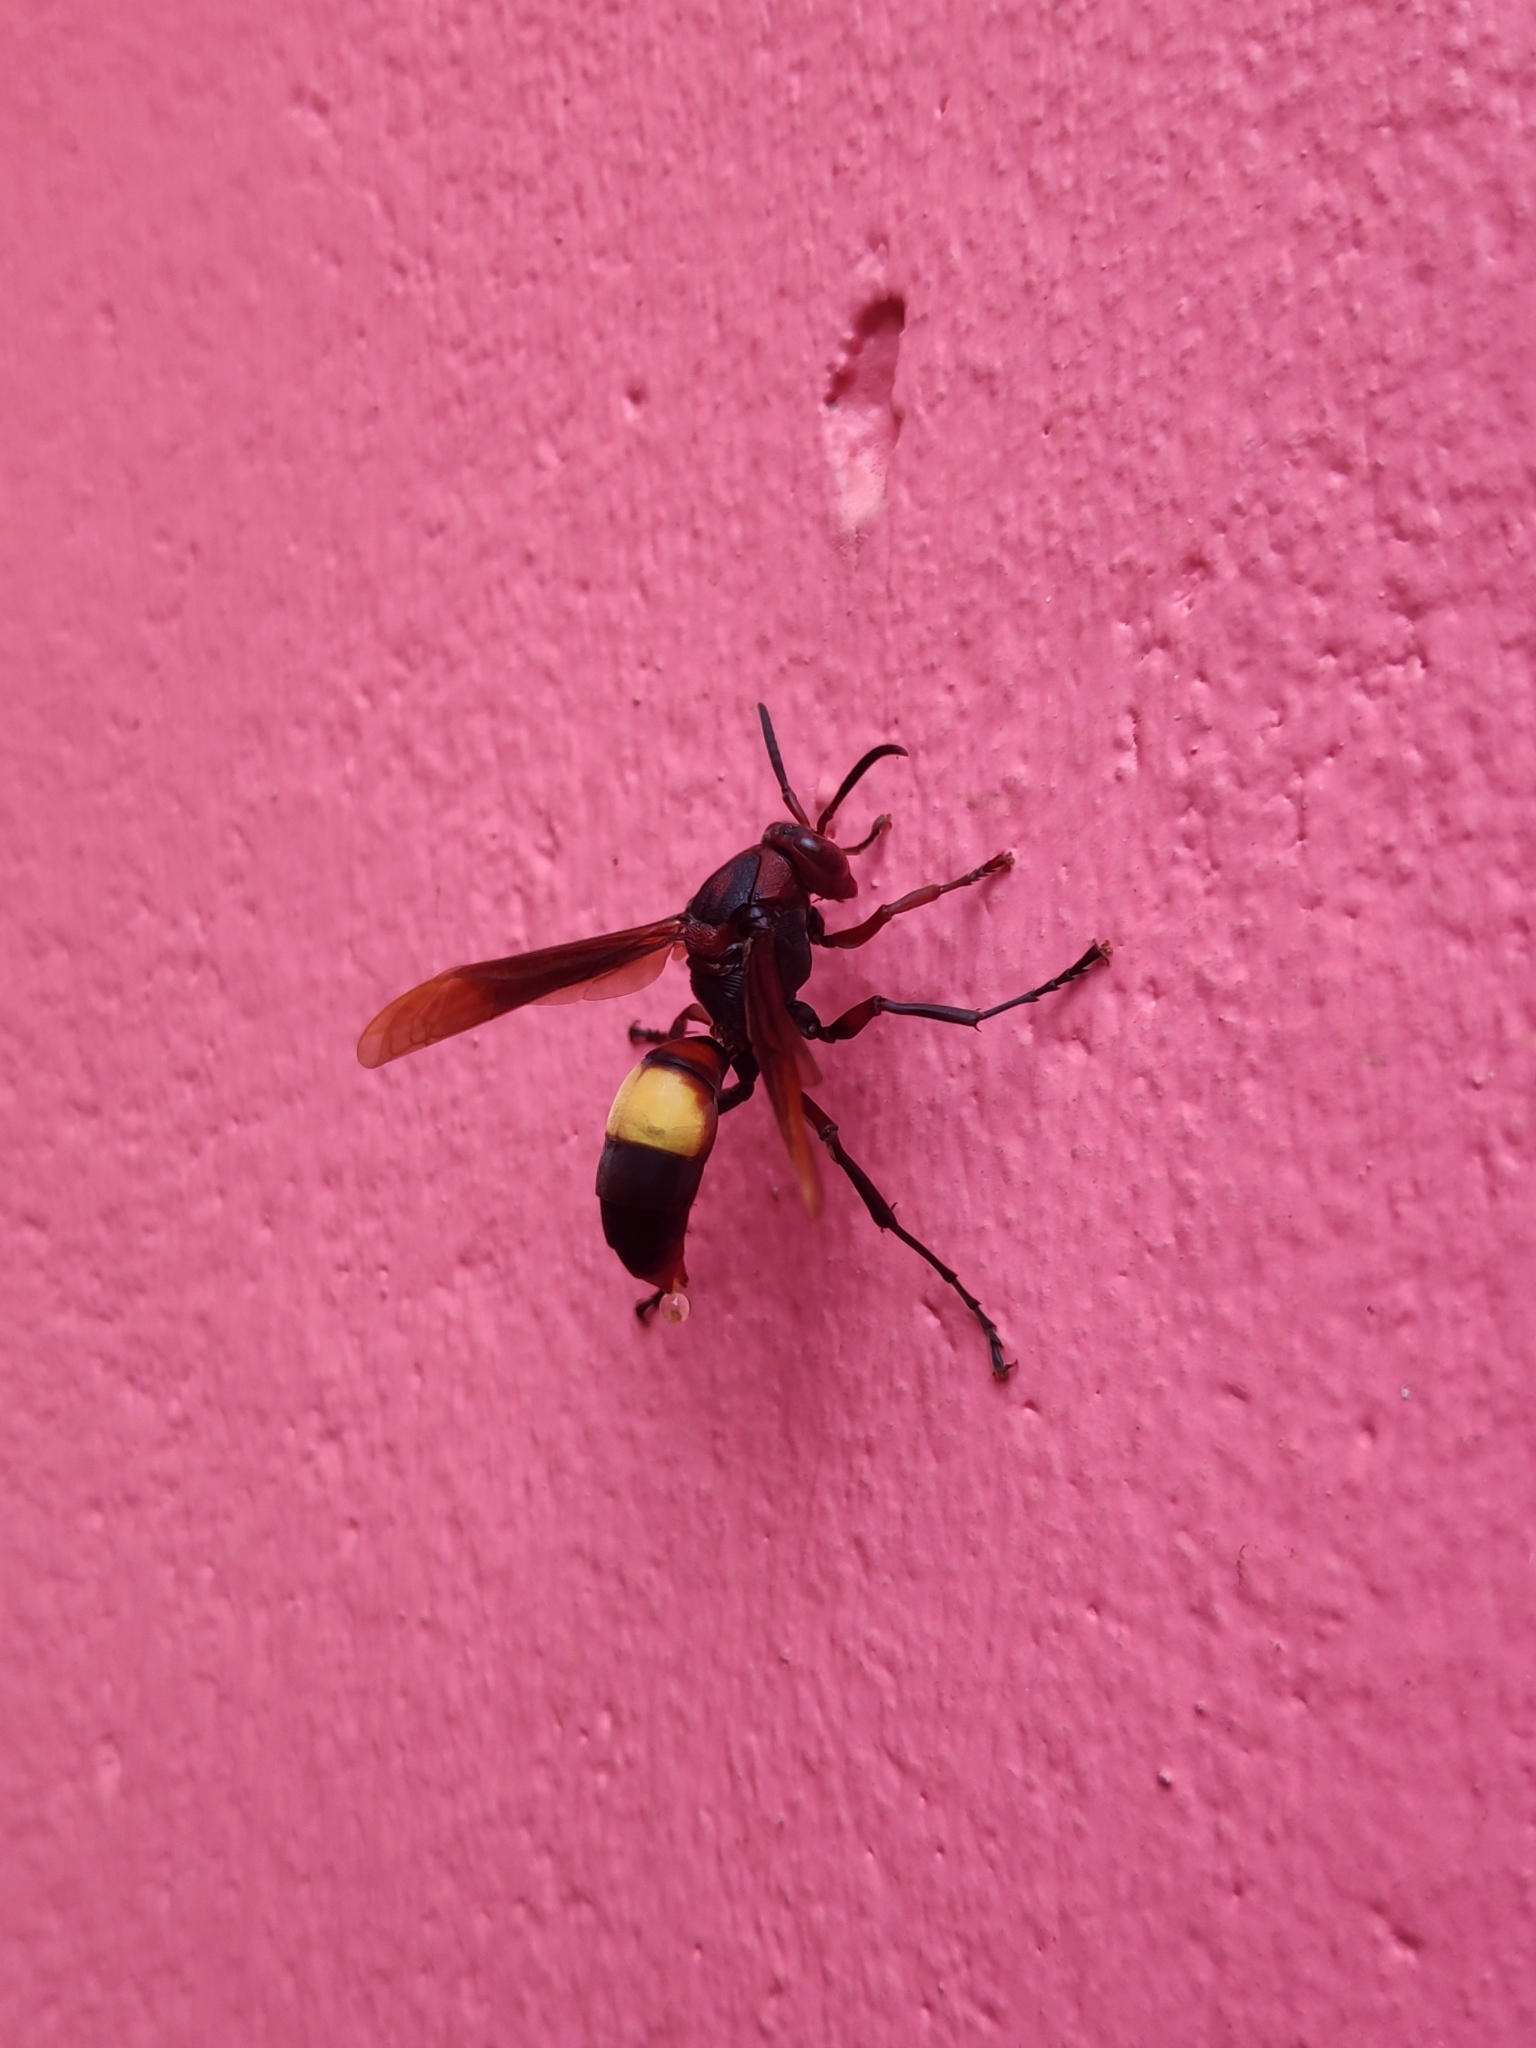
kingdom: Animalia
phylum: Arthropoda
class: Insecta
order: Hymenoptera
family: Eumenidae
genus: Polistes
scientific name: Polistes sagittarius
